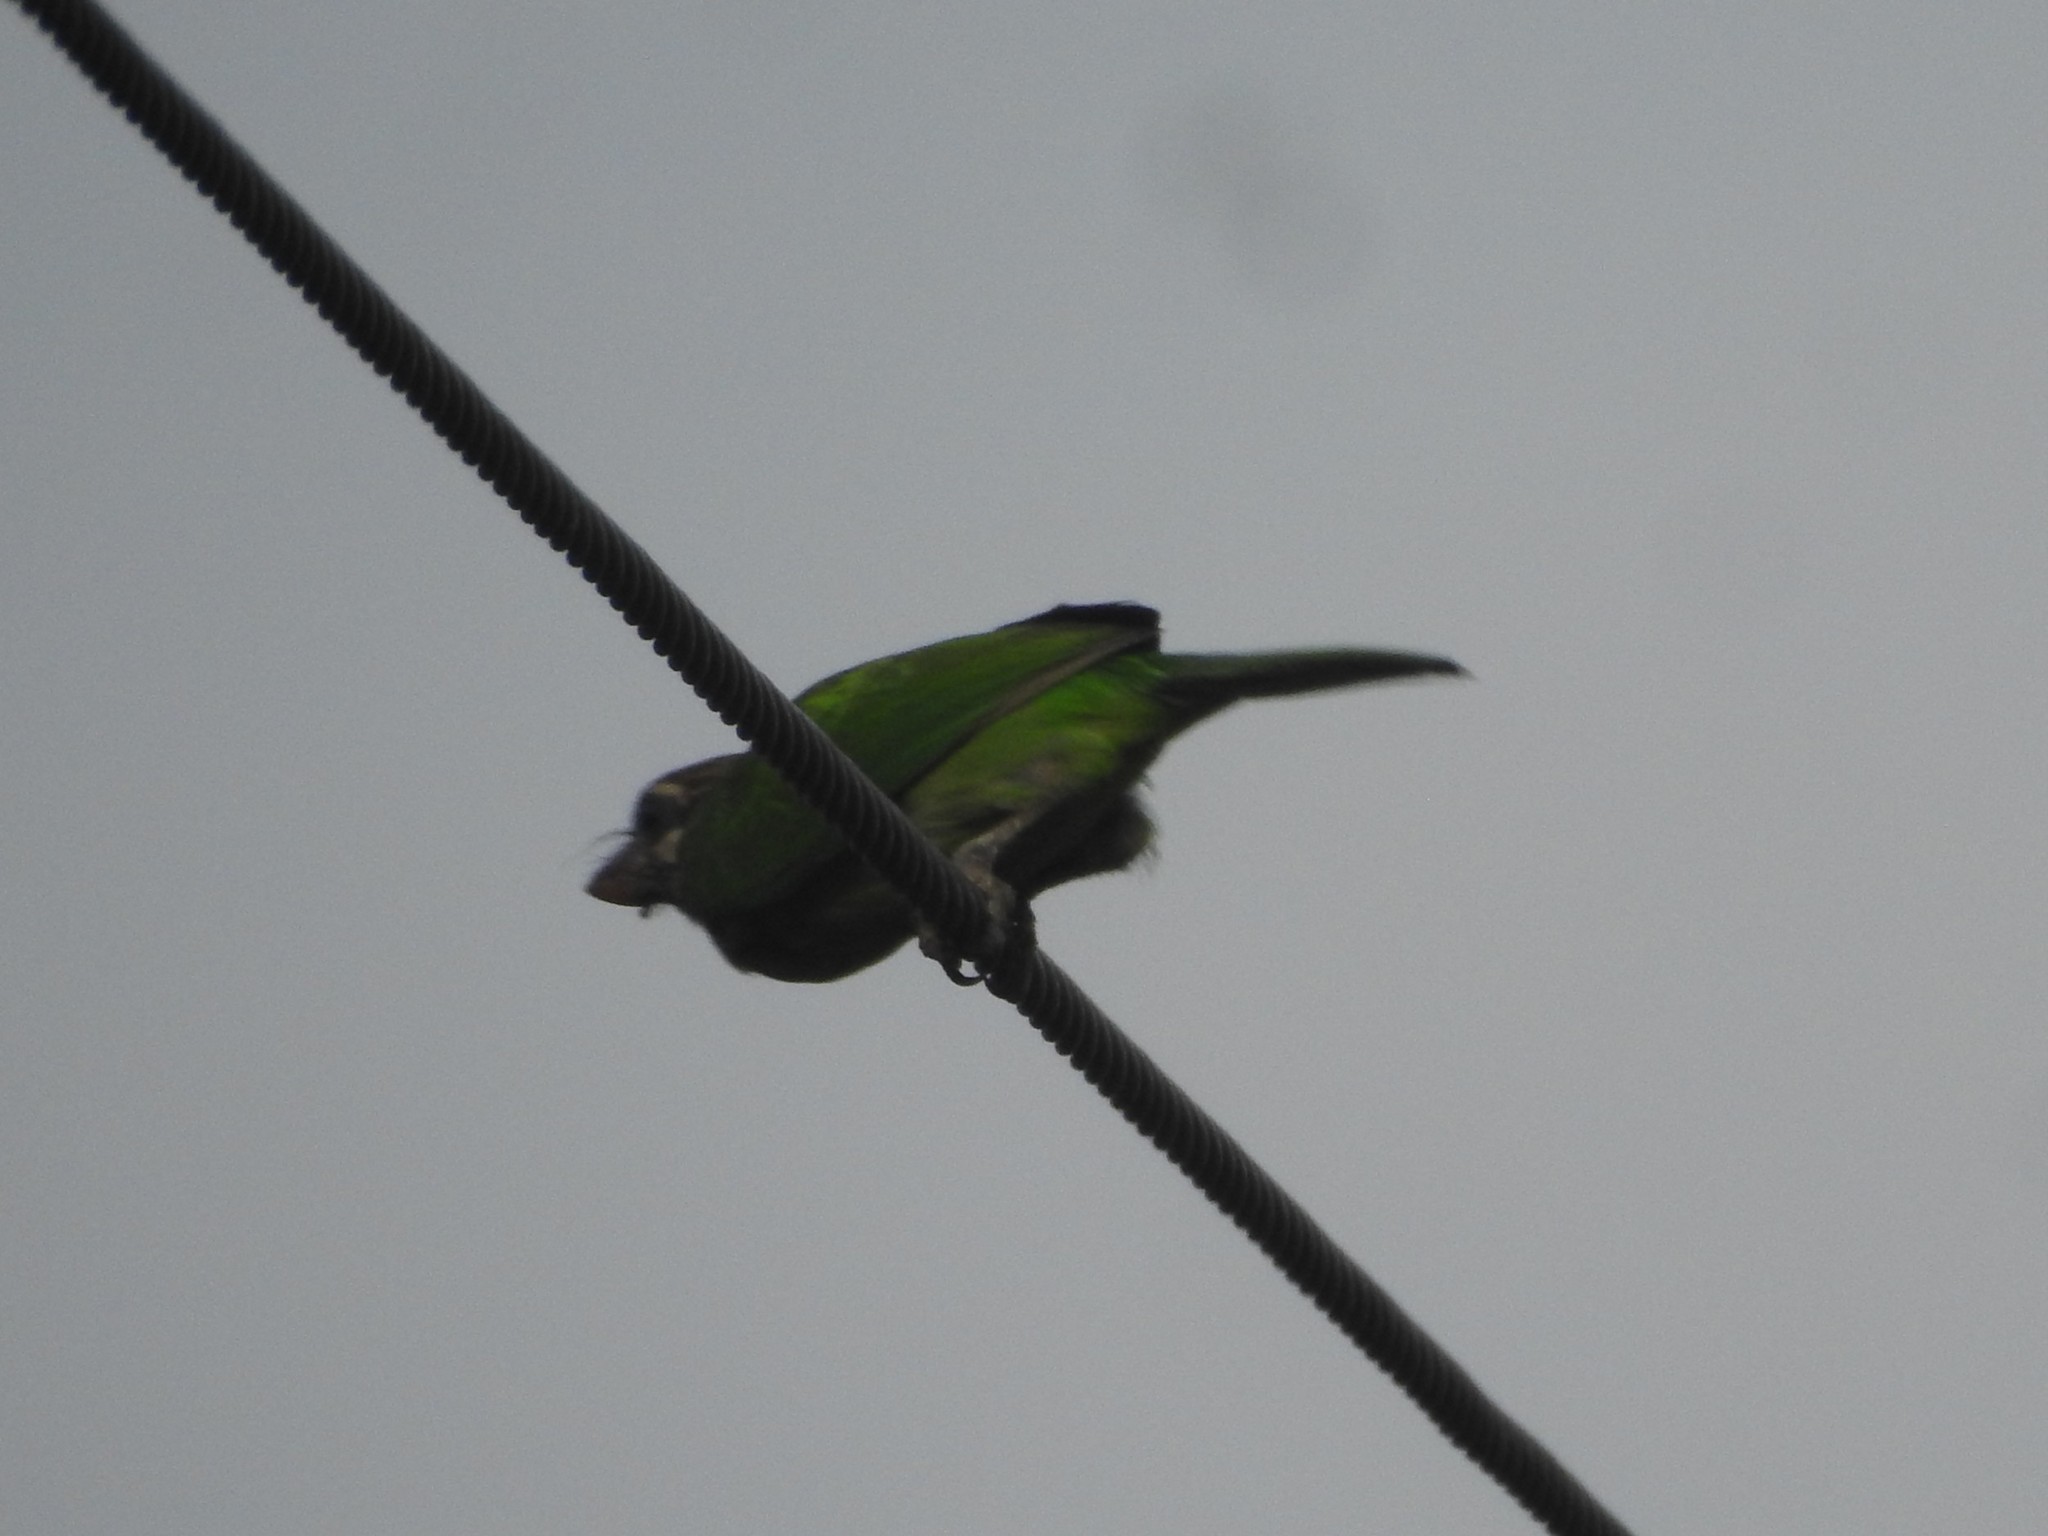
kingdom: Animalia
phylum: Chordata
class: Aves
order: Piciformes
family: Megalaimidae
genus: Psilopogon
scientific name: Psilopogon viridis
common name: White-cheeked barbet
